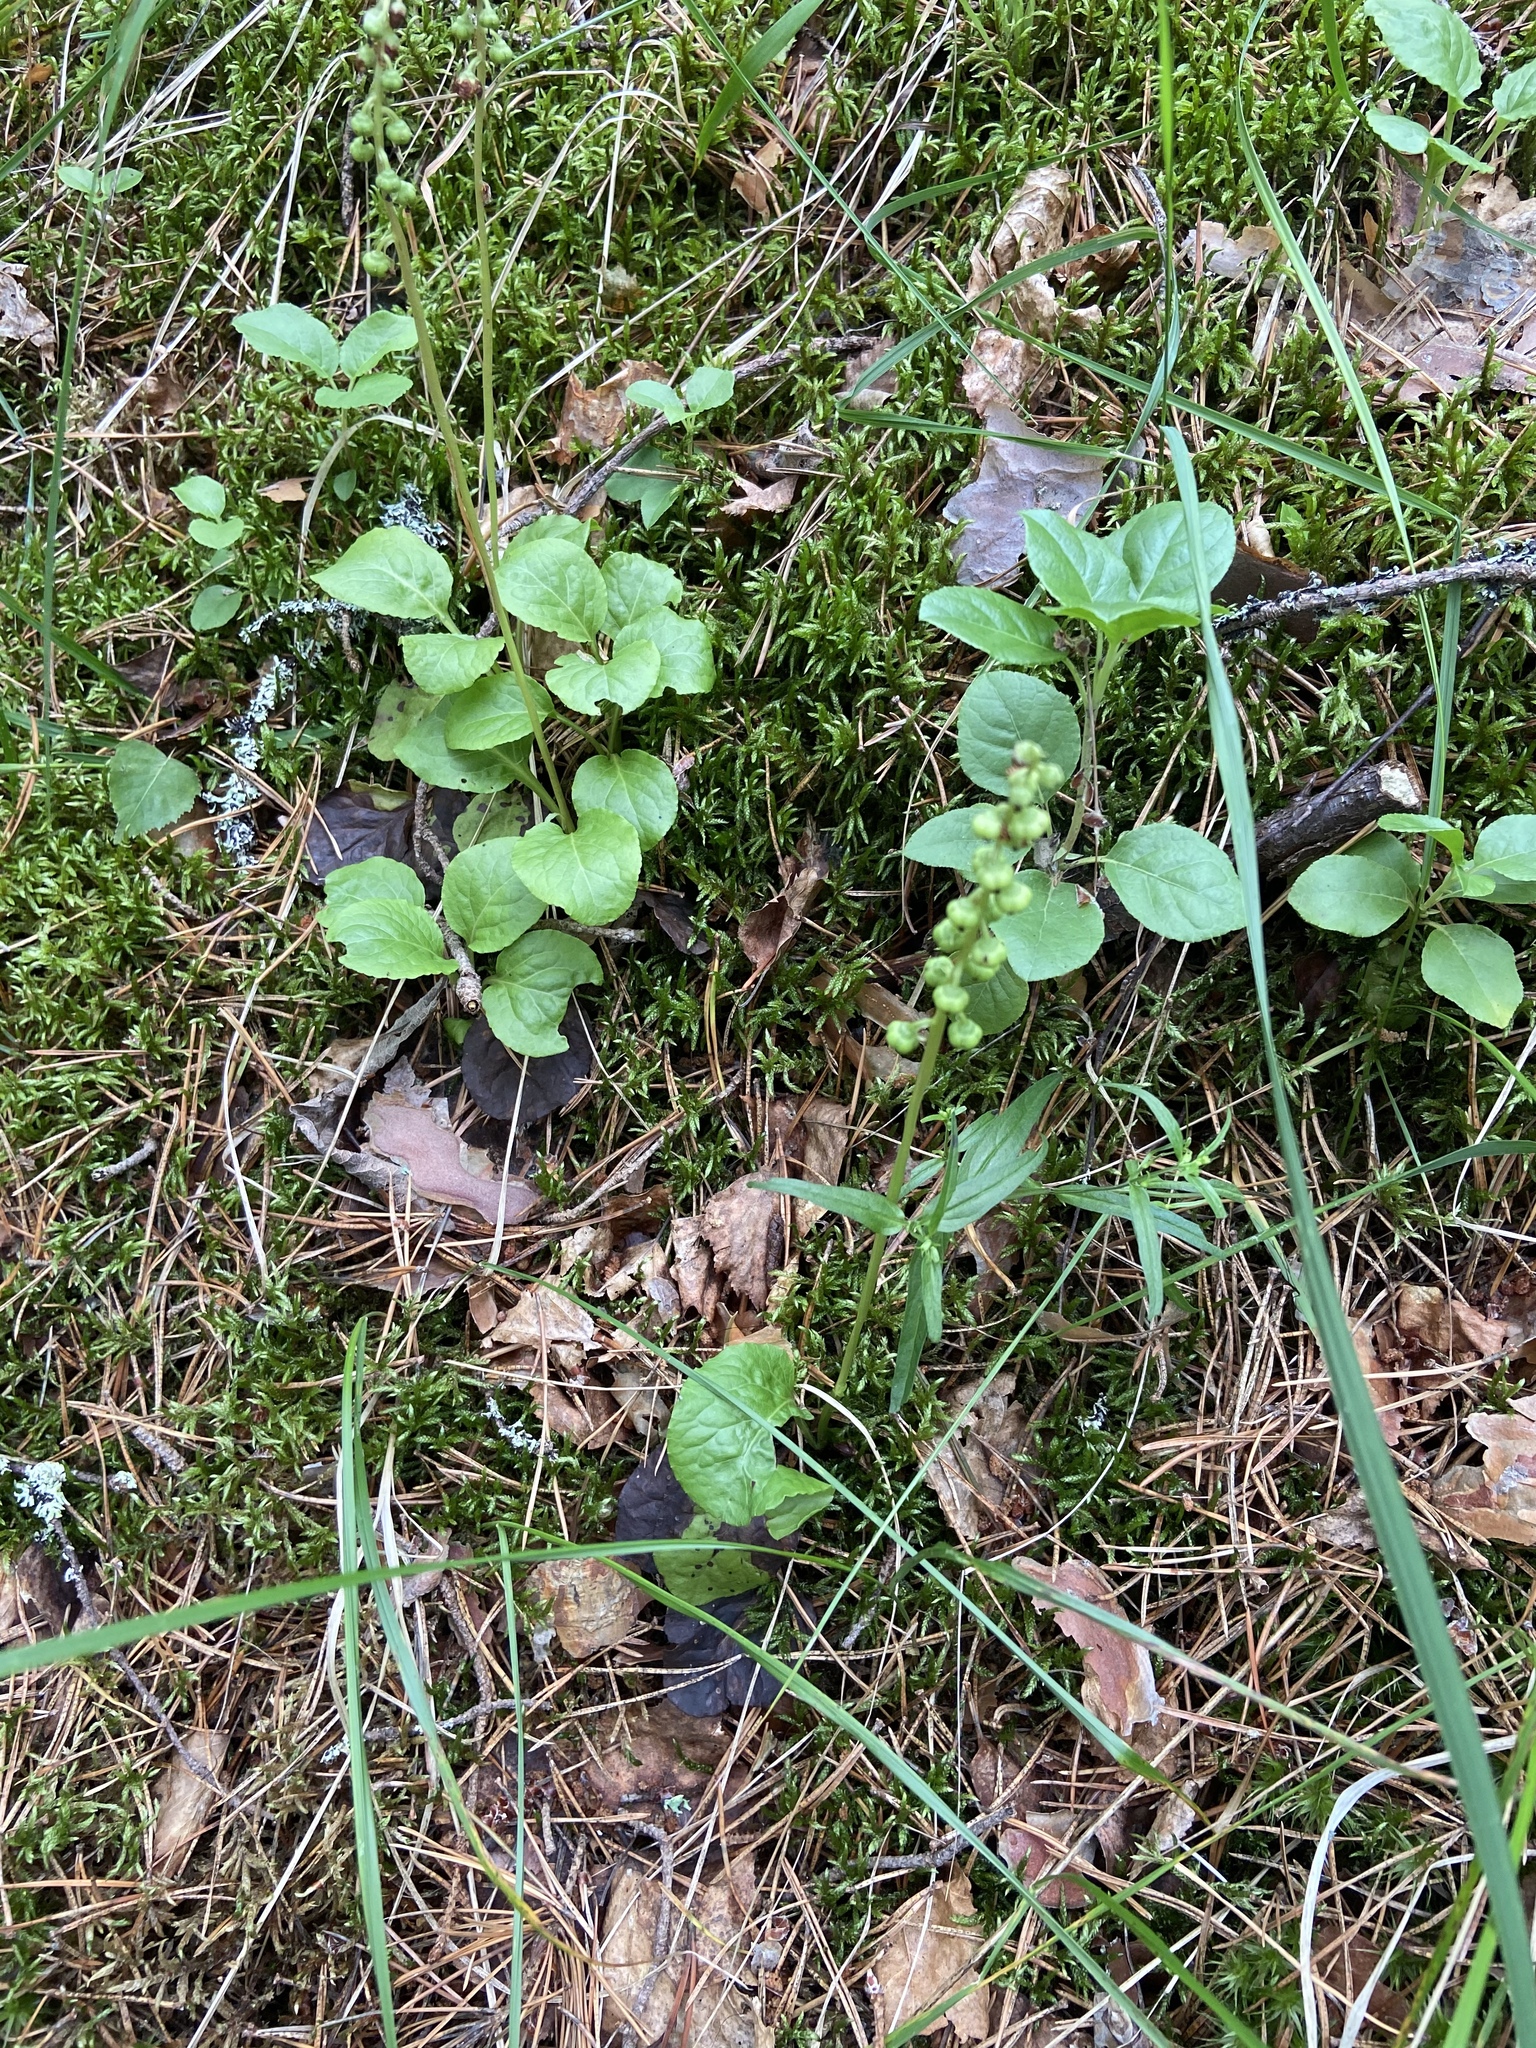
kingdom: Plantae
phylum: Tracheophyta
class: Magnoliopsida
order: Ericales
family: Ericaceae
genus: Pyrola
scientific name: Pyrola minor
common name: Common wintergreen
